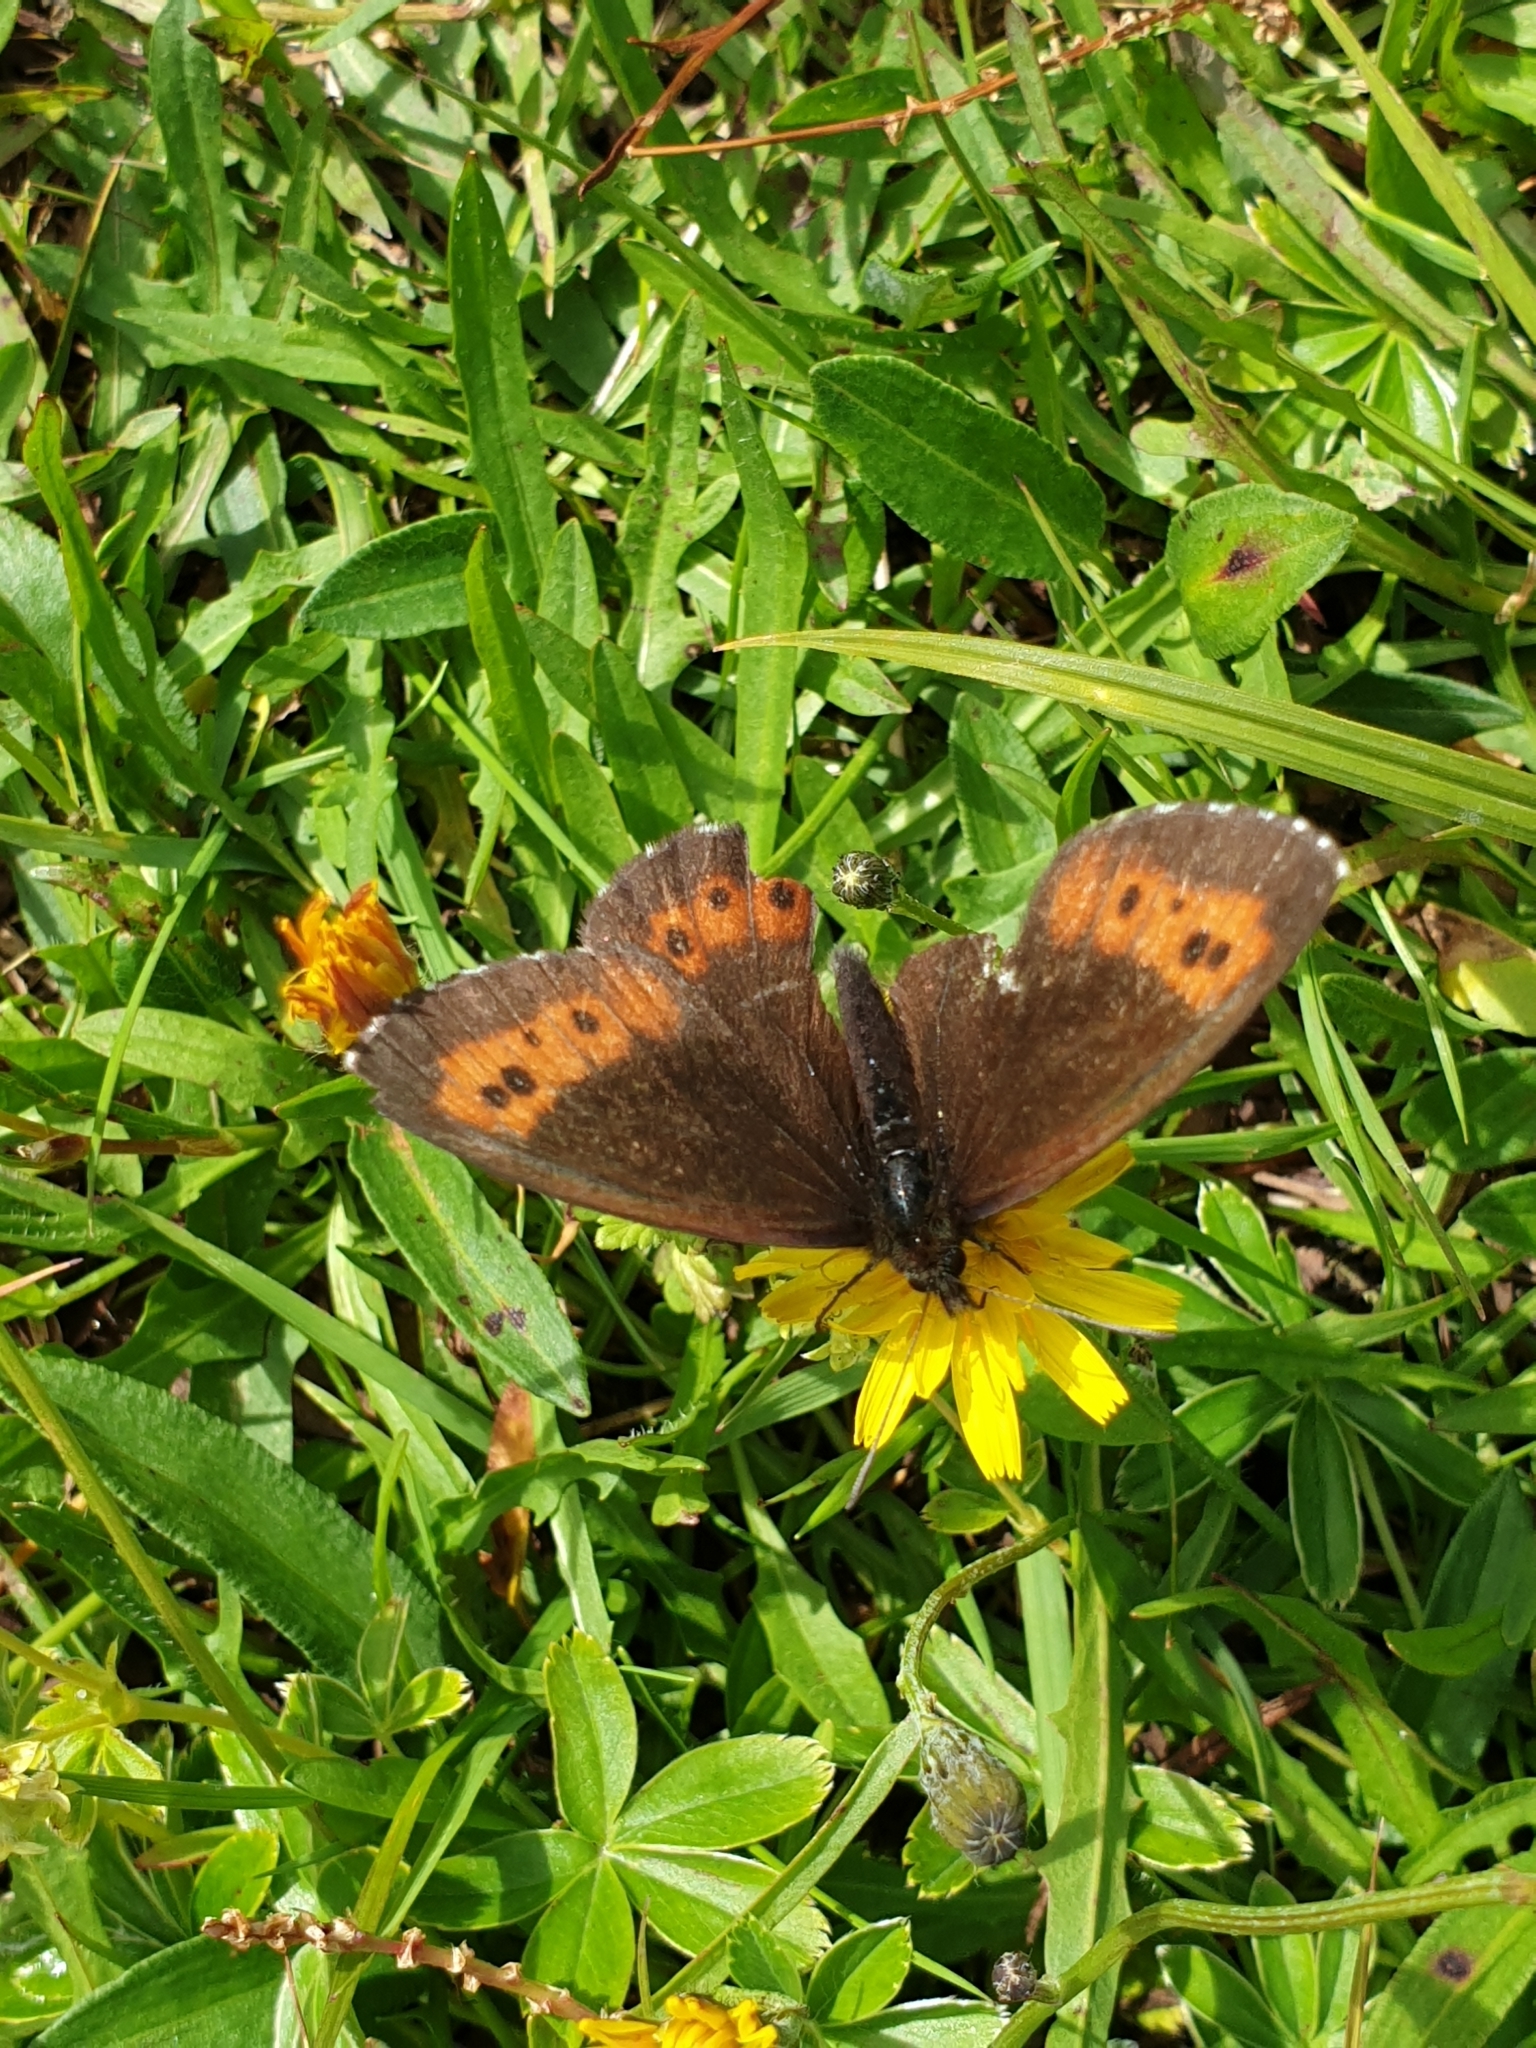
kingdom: Animalia
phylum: Arthropoda
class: Insecta
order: Lepidoptera
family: Nymphalidae
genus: Erebia
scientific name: Erebia ligea
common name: Arran brown
